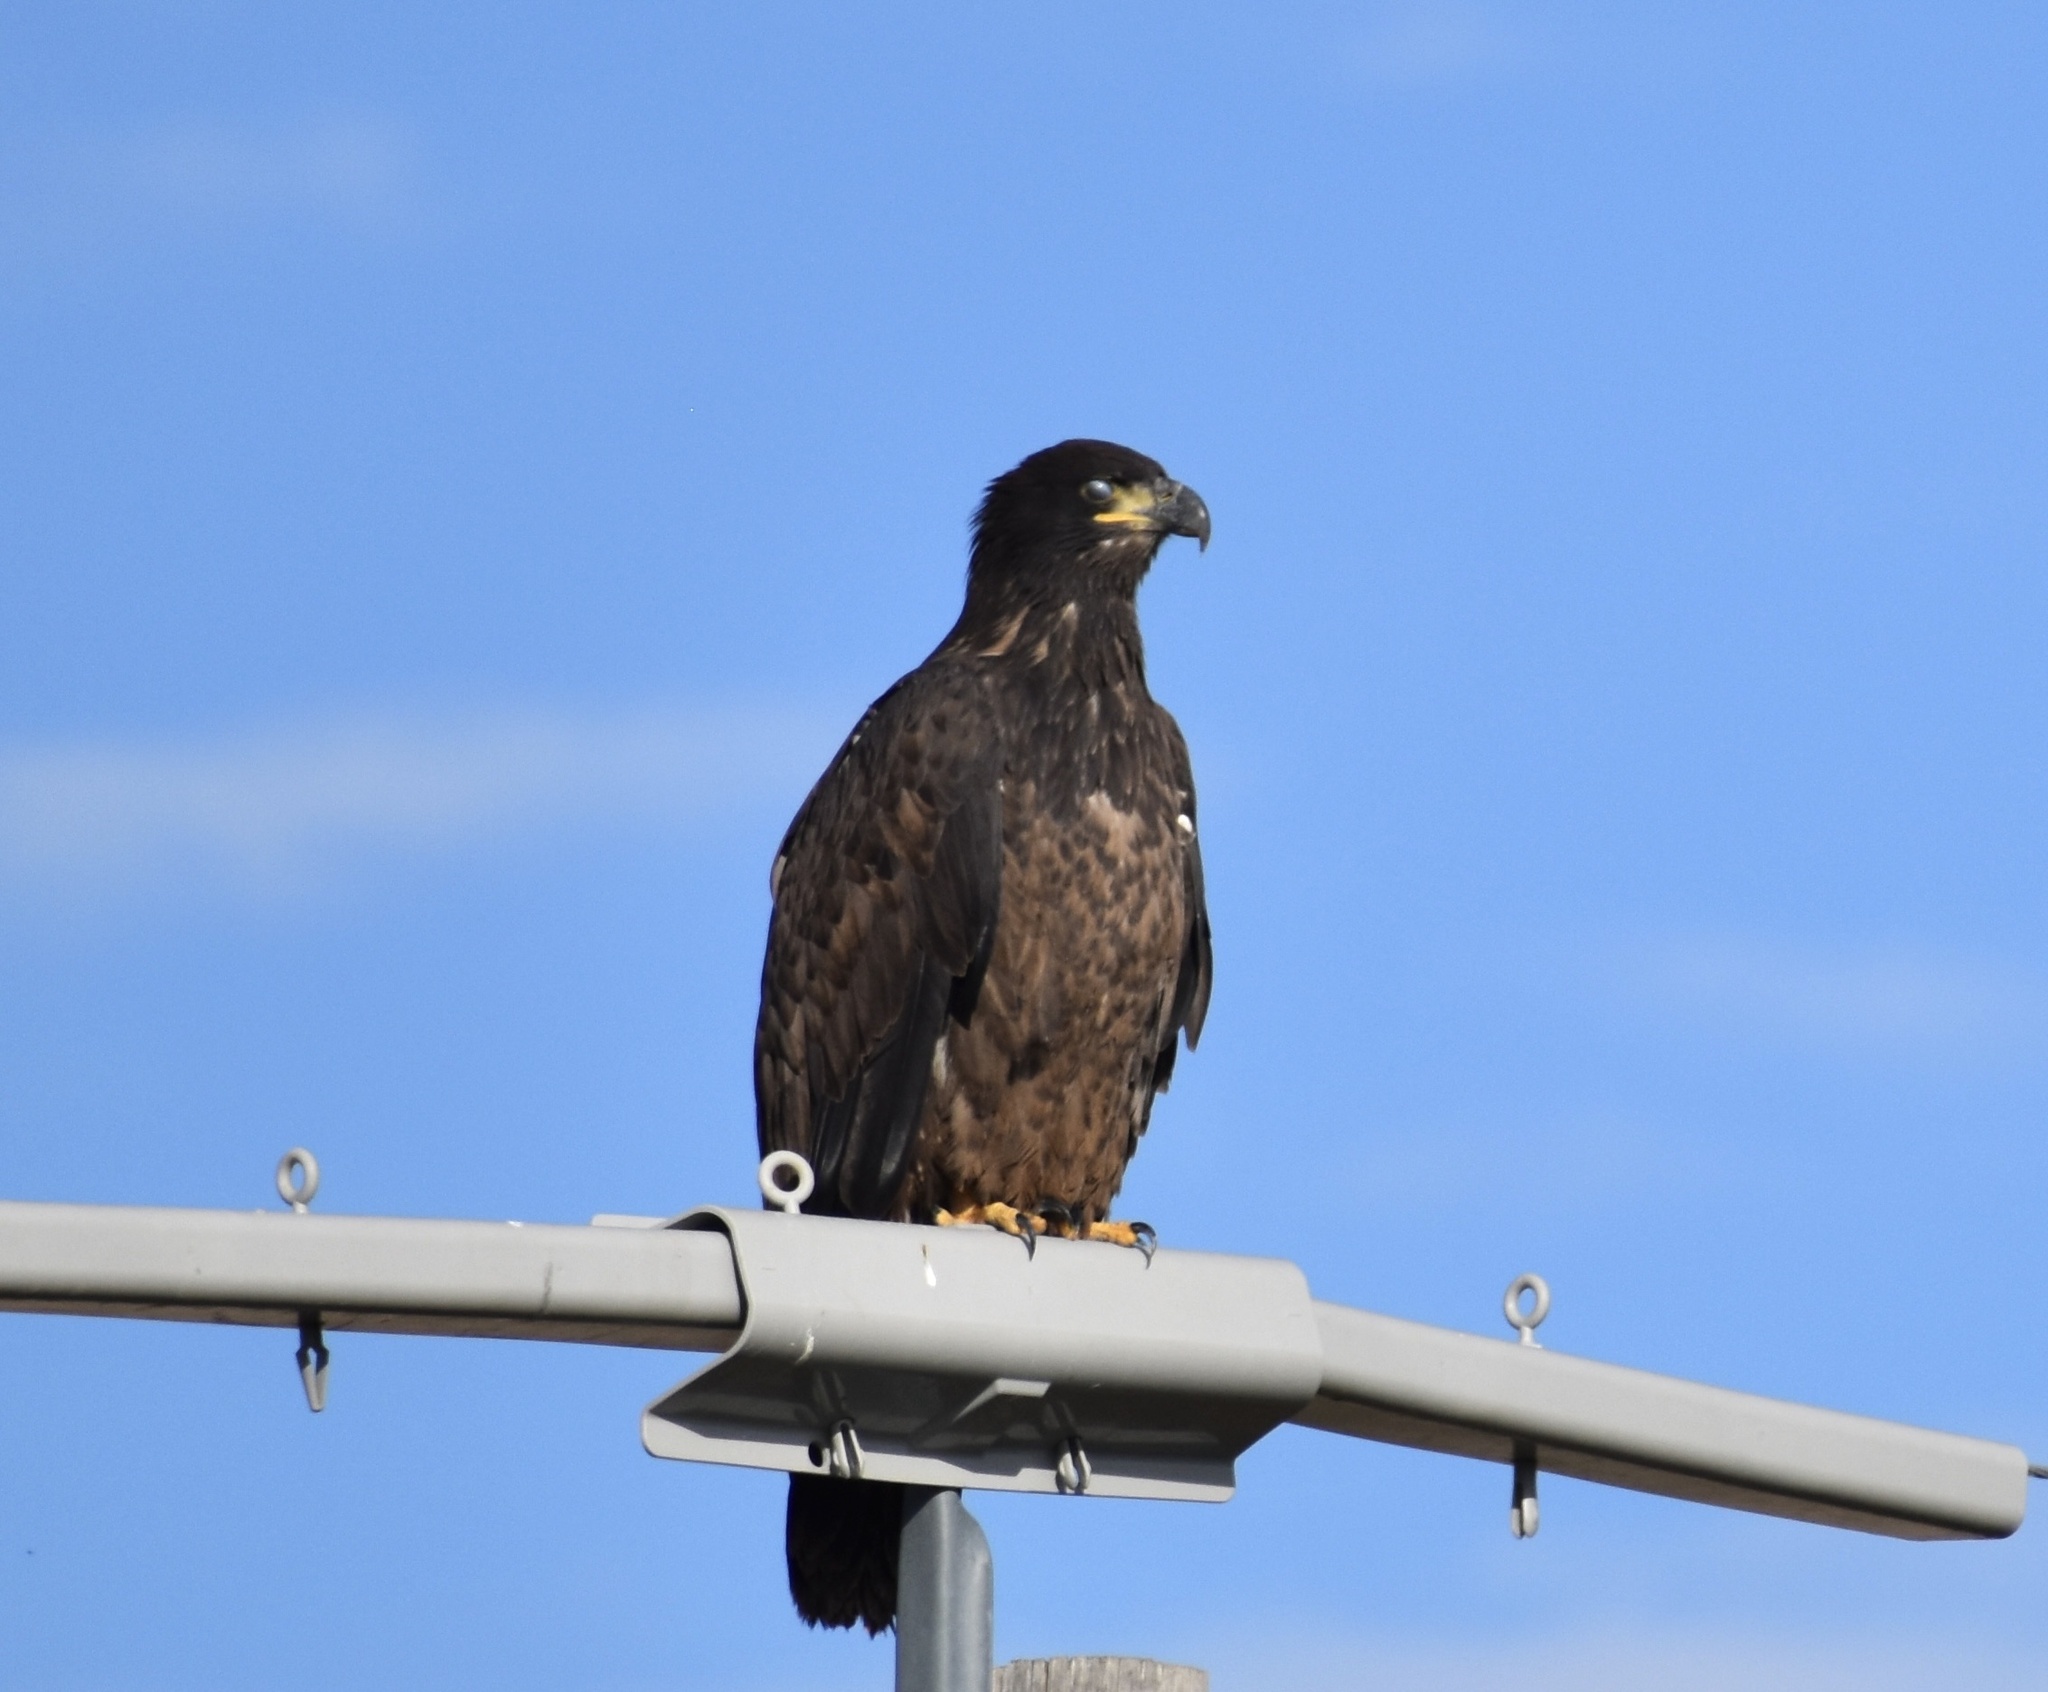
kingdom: Animalia
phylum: Chordata
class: Aves
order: Accipitriformes
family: Accipitridae
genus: Haliaeetus
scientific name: Haliaeetus leucocephalus
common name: Bald eagle
